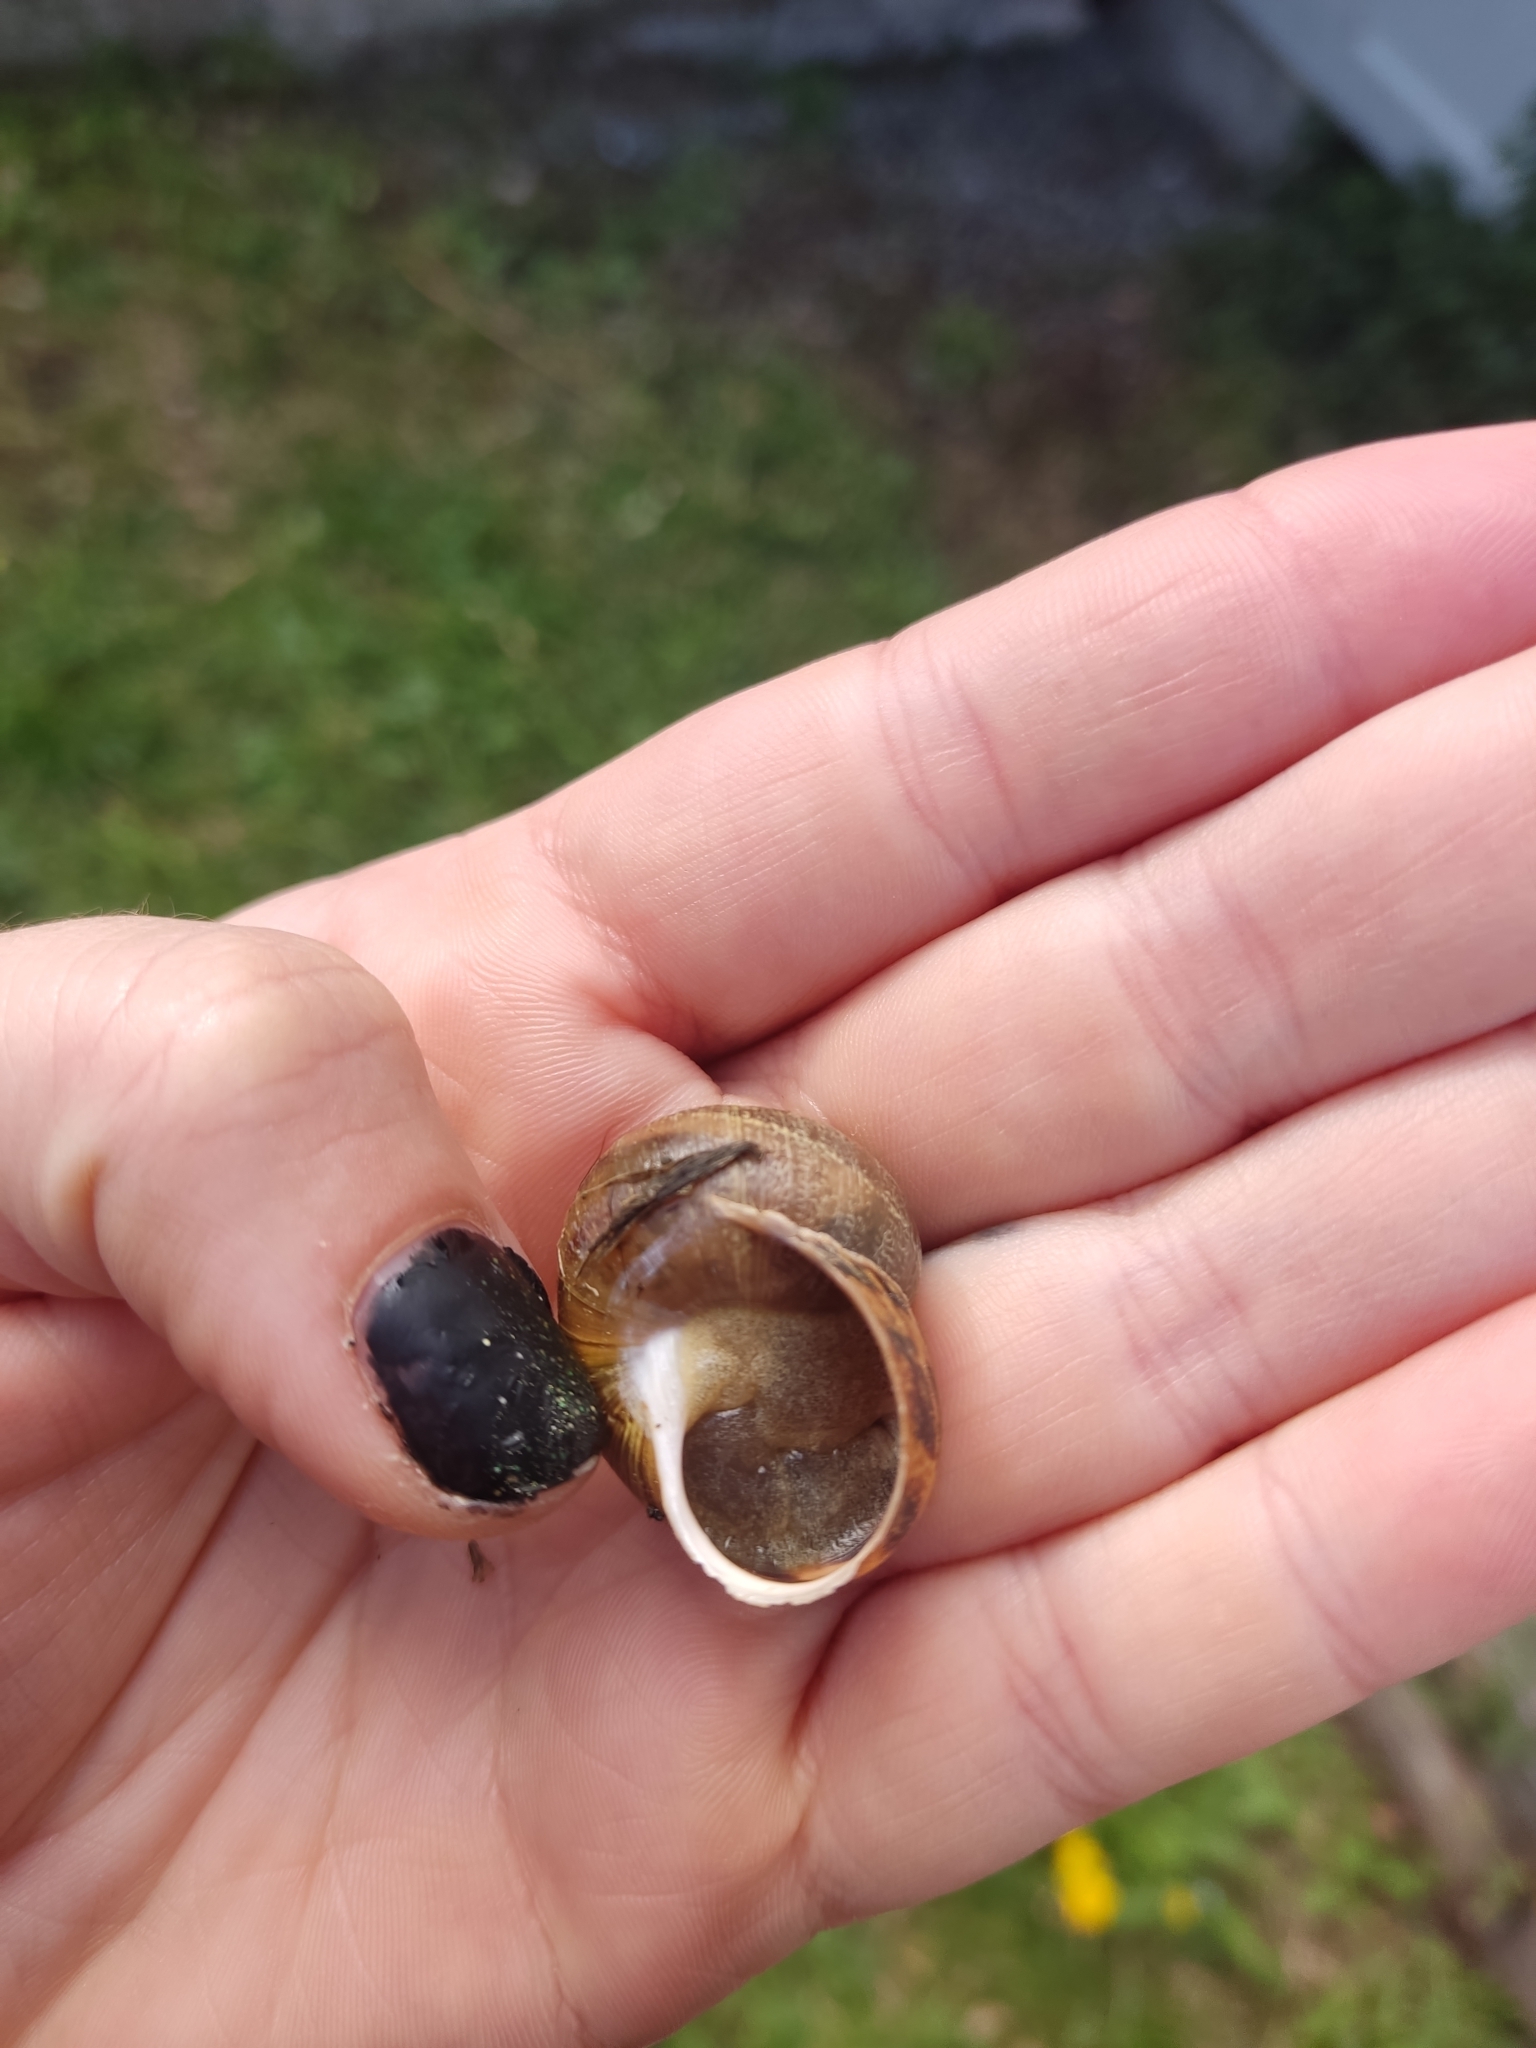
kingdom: Animalia
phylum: Mollusca
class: Gastropoda
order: Stylommatophora
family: Helicidae
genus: Cornu
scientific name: Cornu aspersum
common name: Brown garden snail
